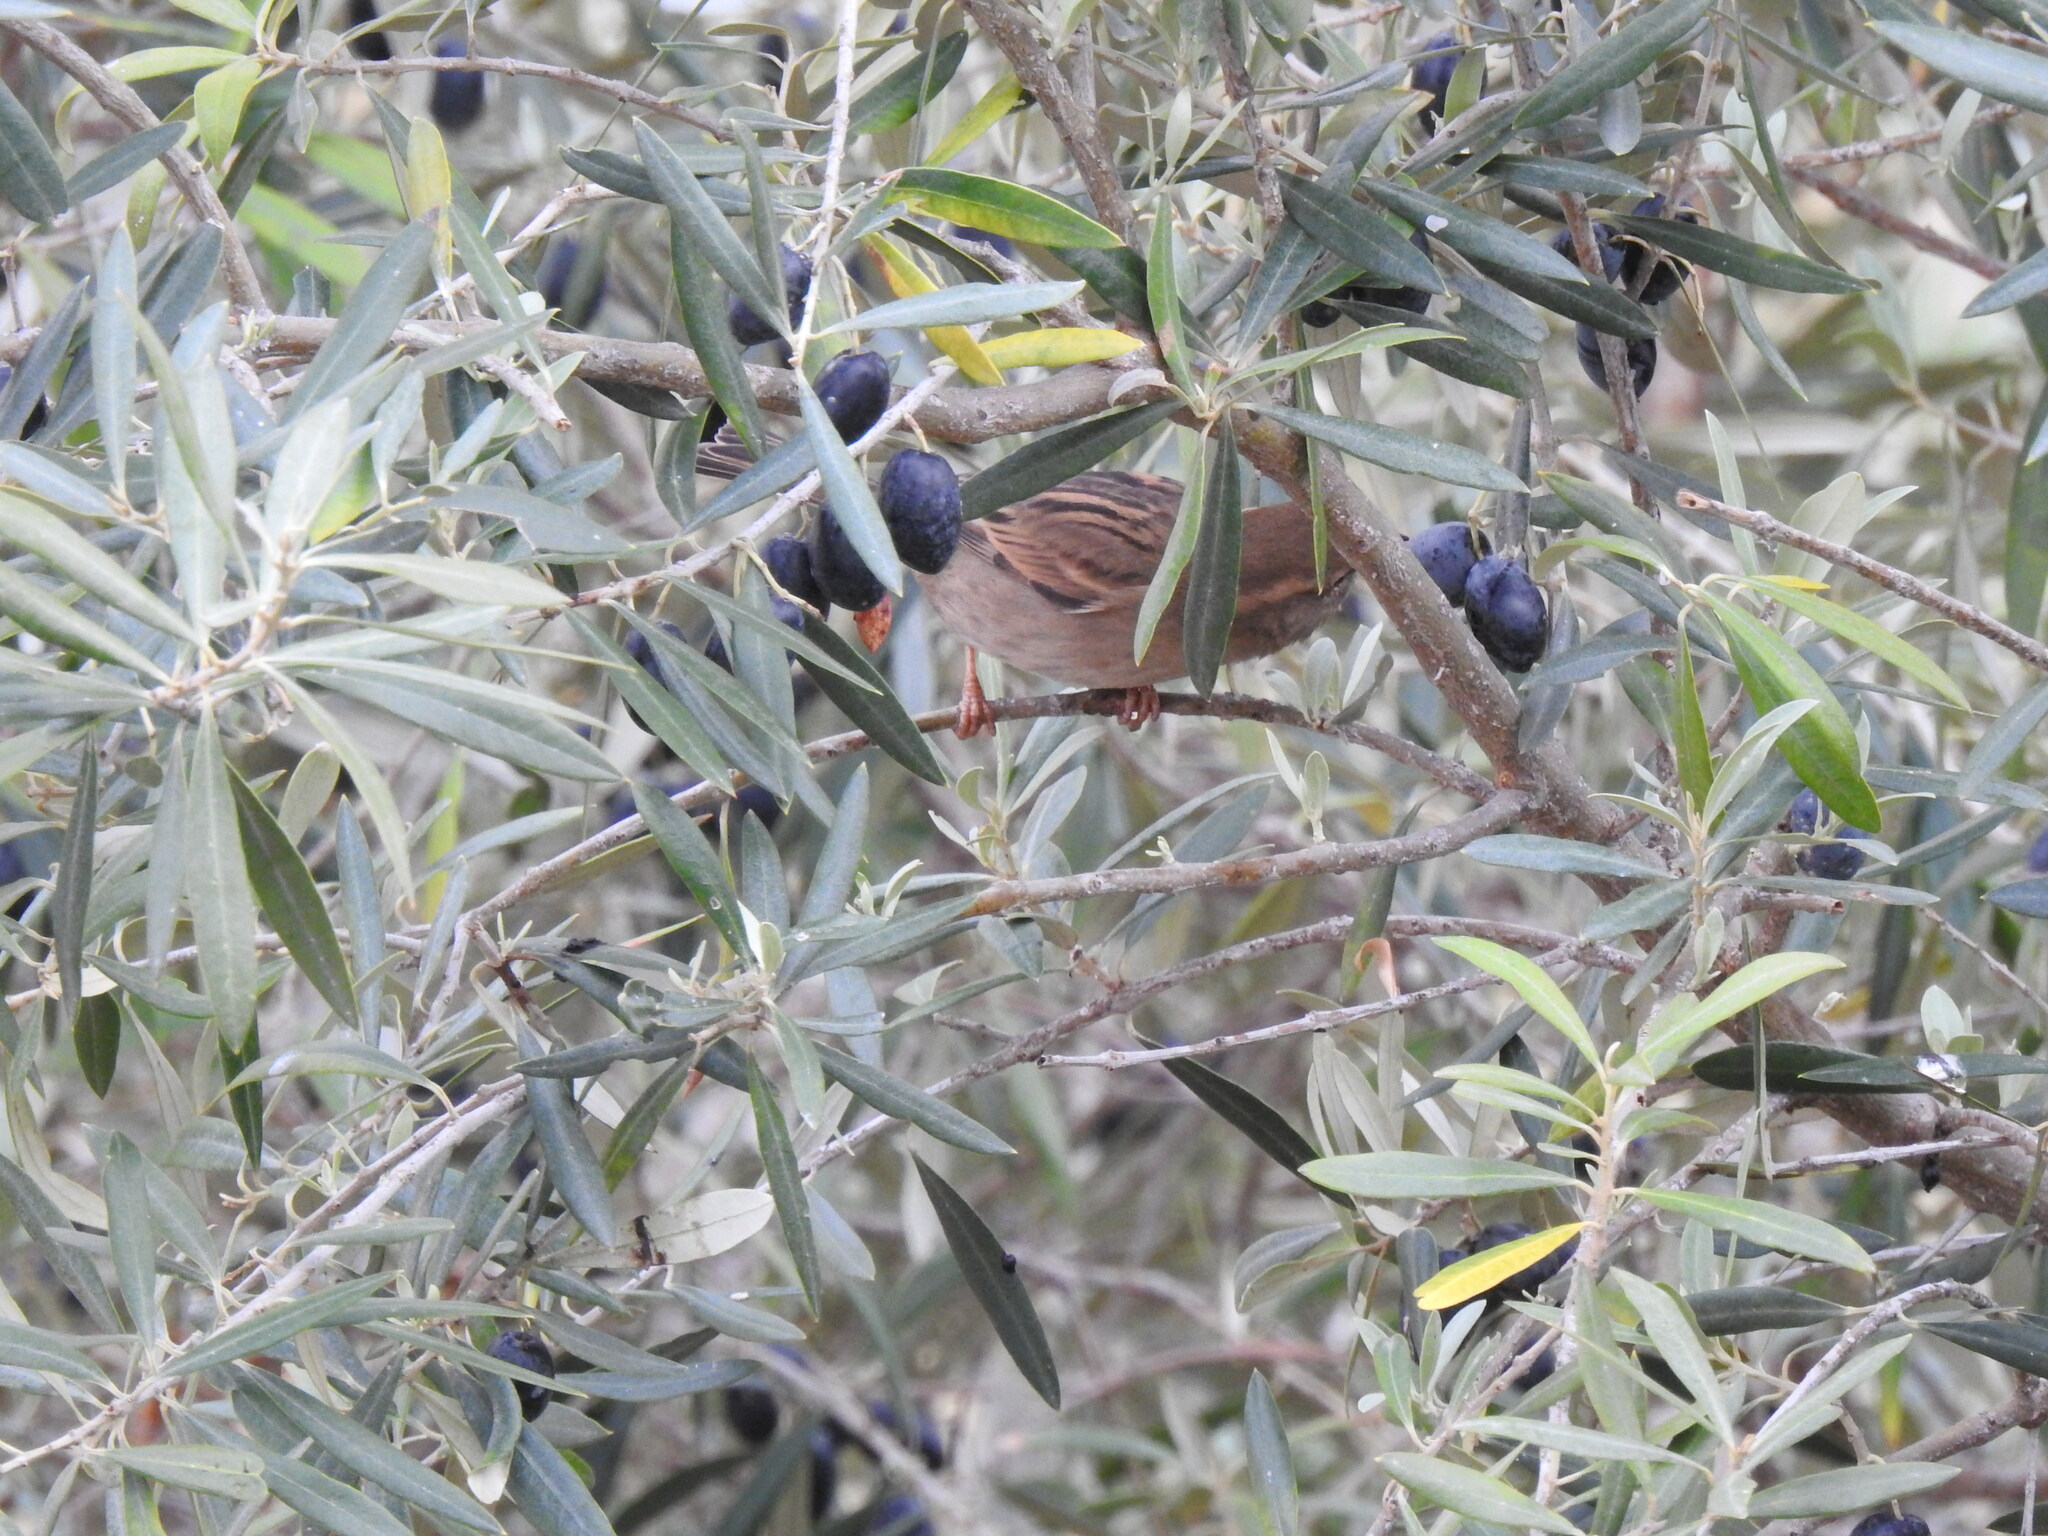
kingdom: Animalia
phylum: Chordata
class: Aves
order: Passeriformes
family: Passeridae
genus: Passer
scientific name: Passer domesticus
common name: House sparrow
